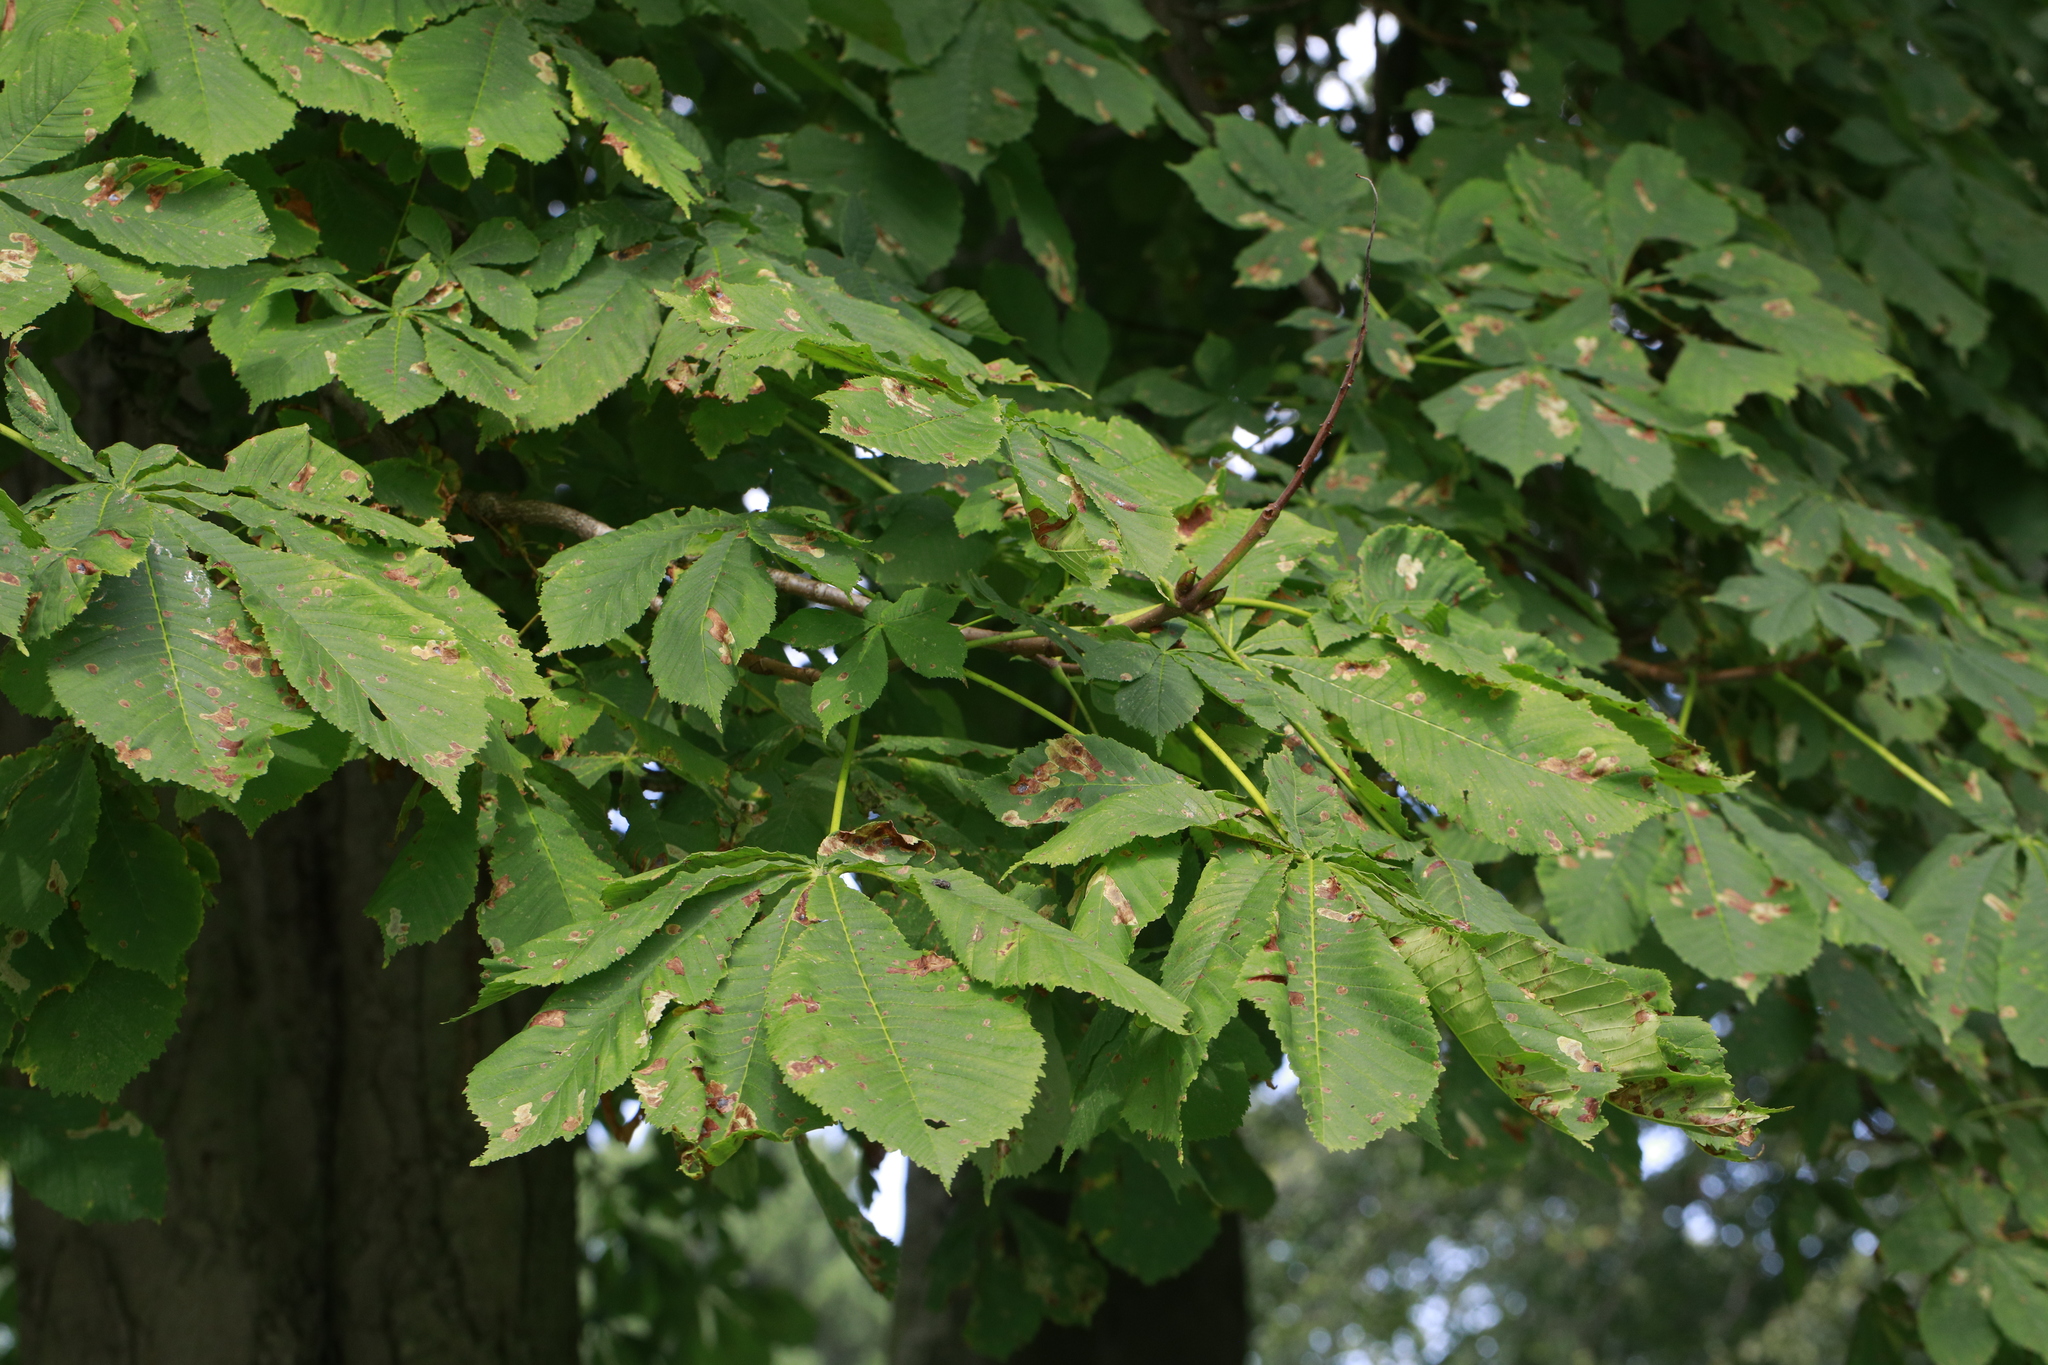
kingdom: Plantae
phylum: Tracheophyta
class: Magnoliopsida
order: Sapindales
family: Sapindaceae
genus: Aesculus
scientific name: Aesculus hippocastanum
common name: Horse-chestnut
